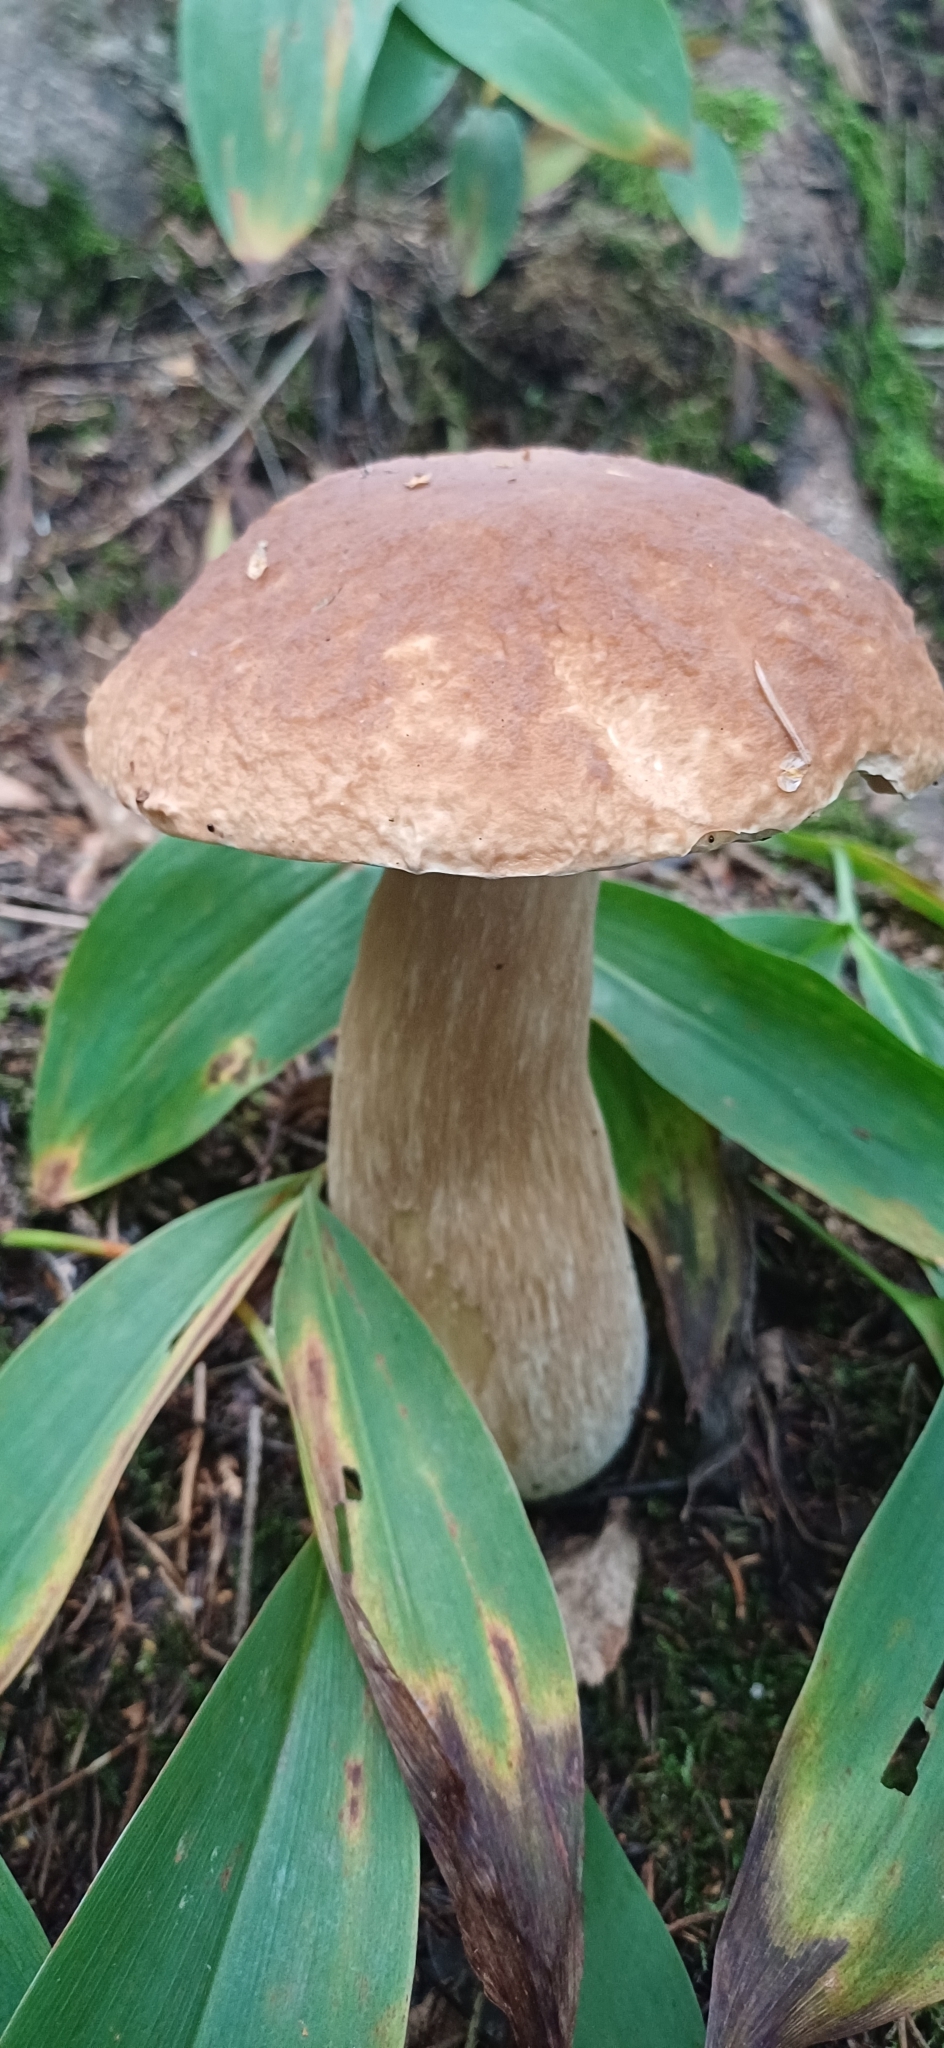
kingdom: Fungi
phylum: Basidiomycota
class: Agaricomycetes
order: Boletales
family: Boletaceae
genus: Boletus
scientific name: Boletus edulis
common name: Cep
